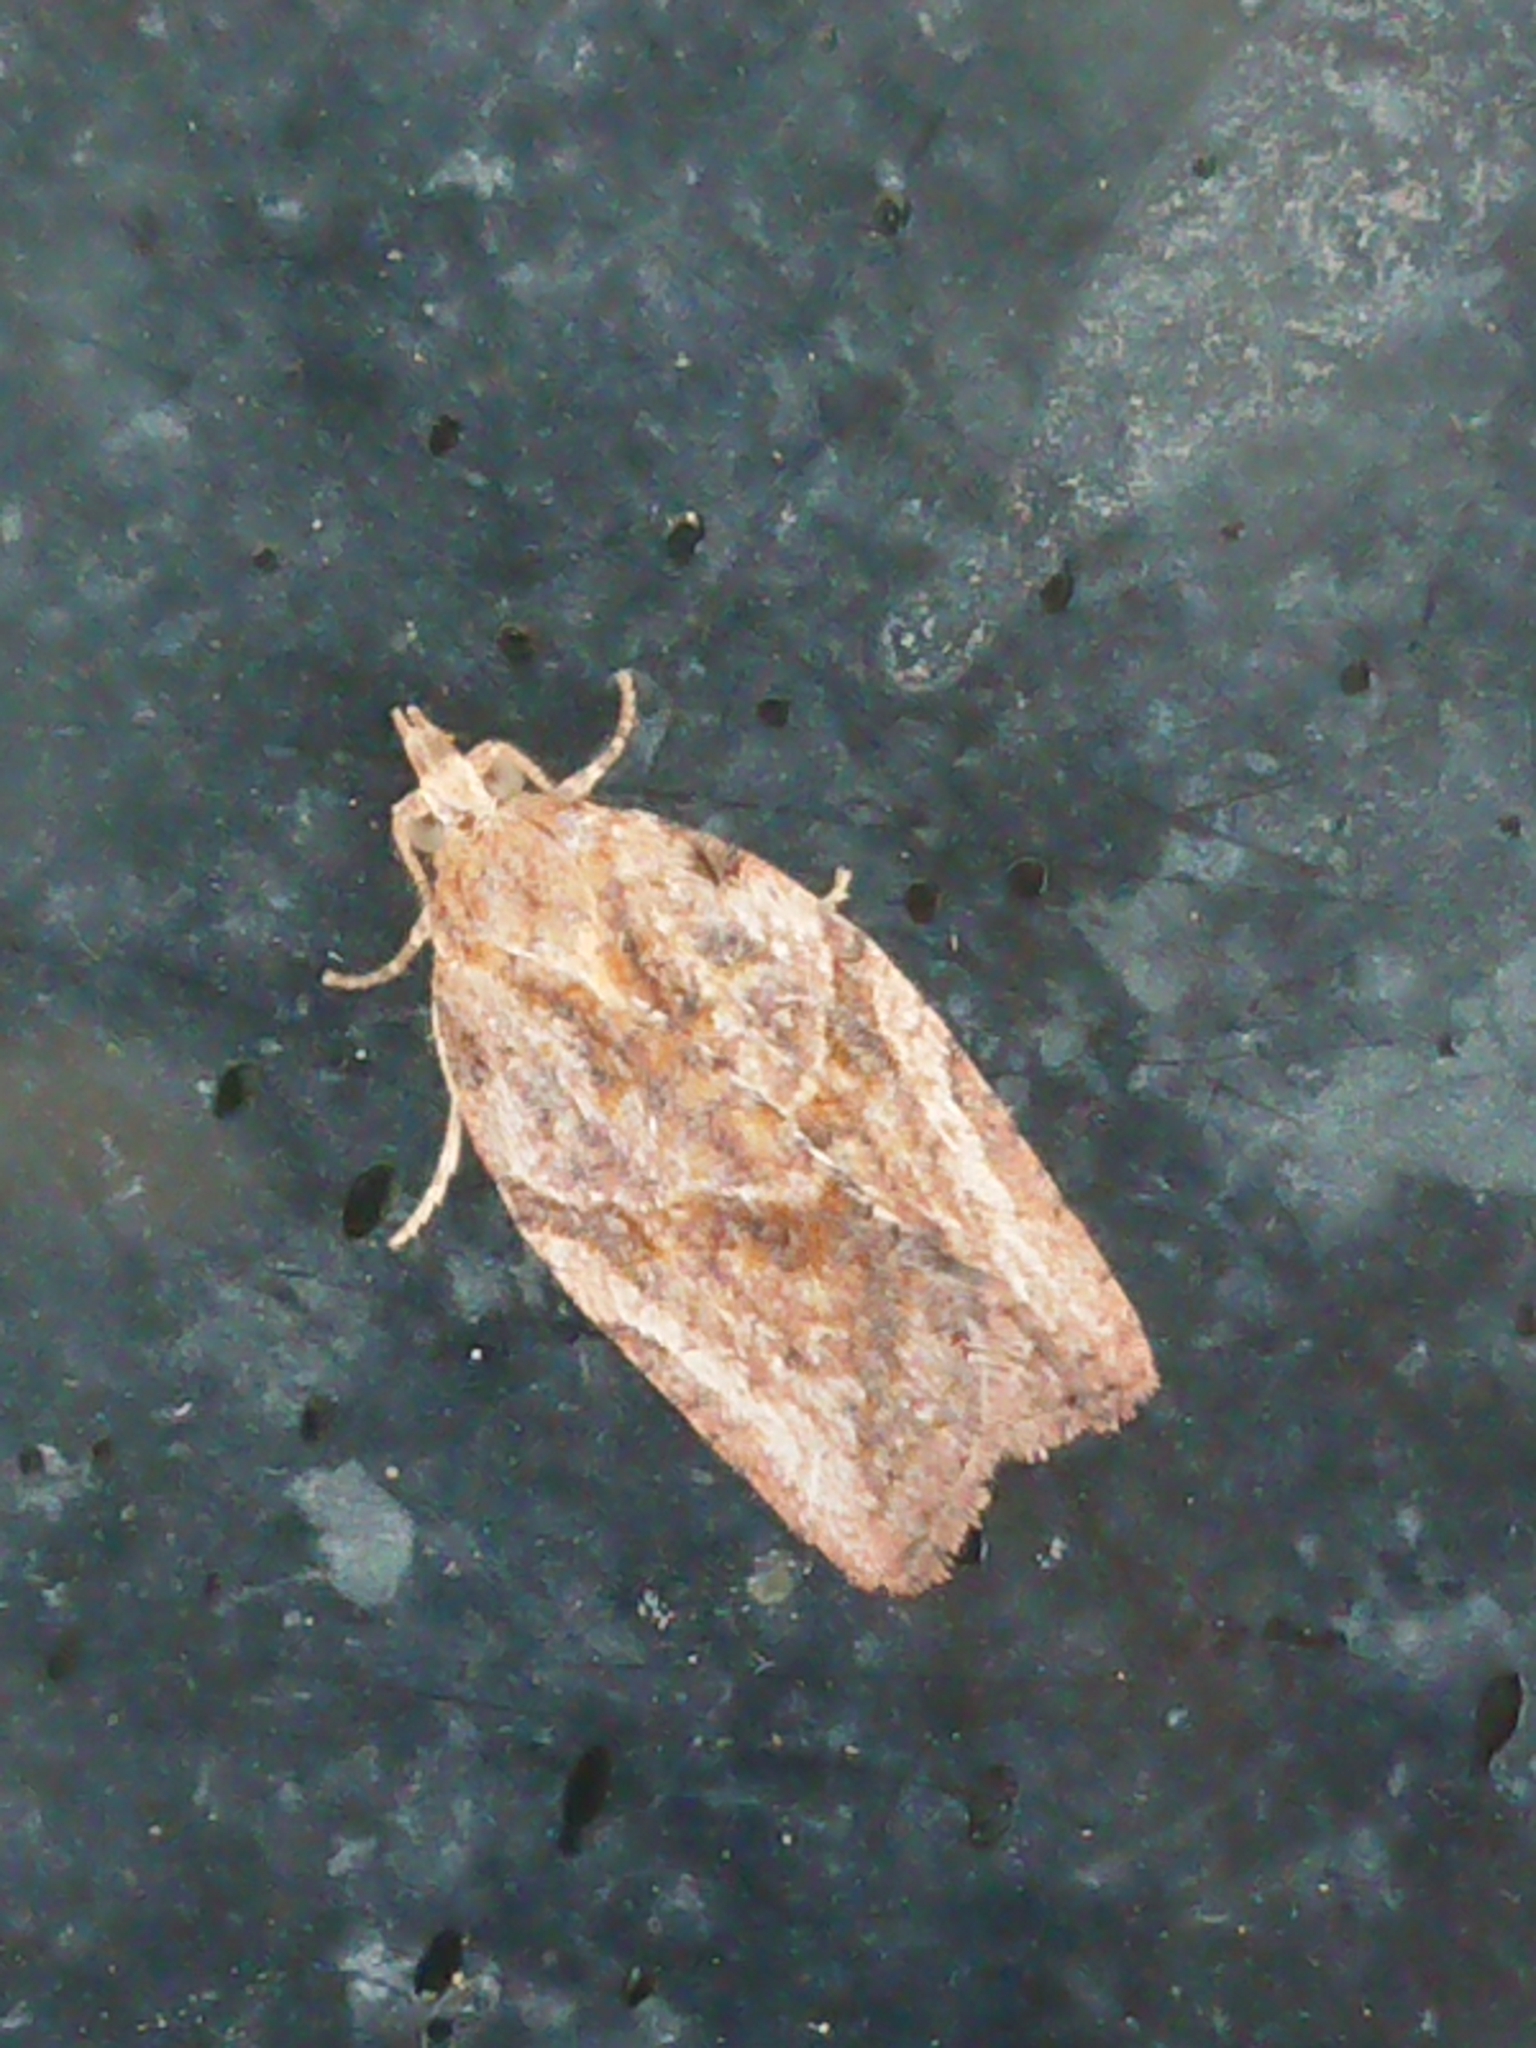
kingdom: Animalia
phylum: Arthropoda
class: Insecta
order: Lepidoptera
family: Tortricidae
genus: Epiphyas
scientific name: Epiphyas postvittana
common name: Light brown apple moth
